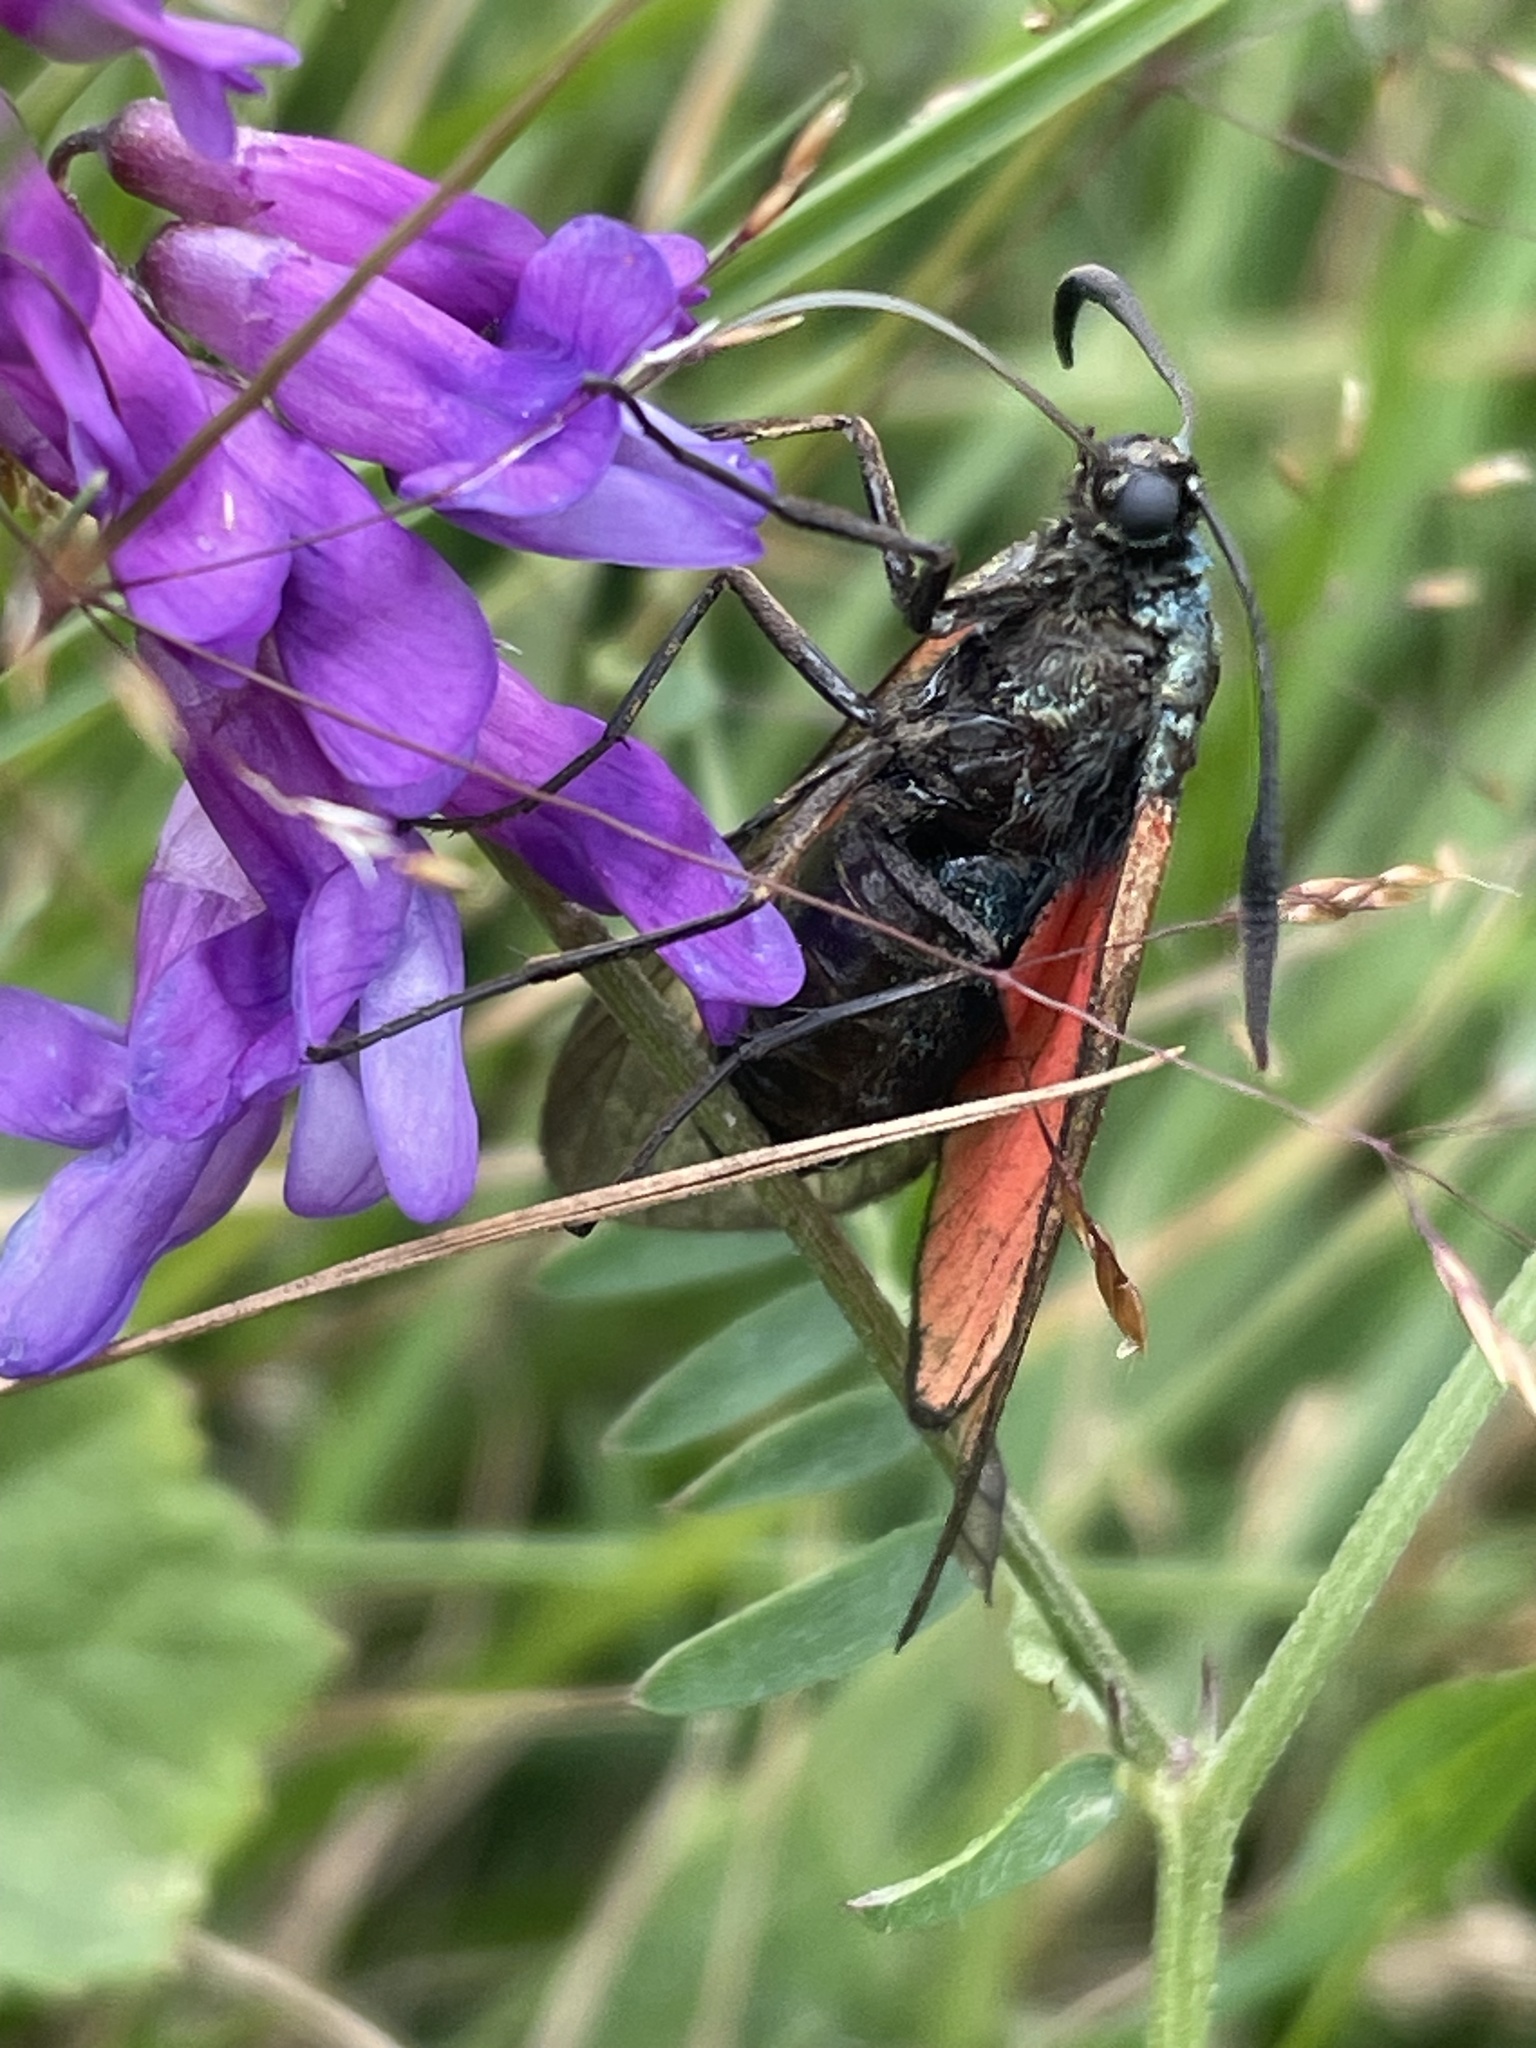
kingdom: Animalia
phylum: Arthropoda
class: Insecta
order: Lepidoptera
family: Zygaenidae
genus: Zygaena
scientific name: Zygaena
